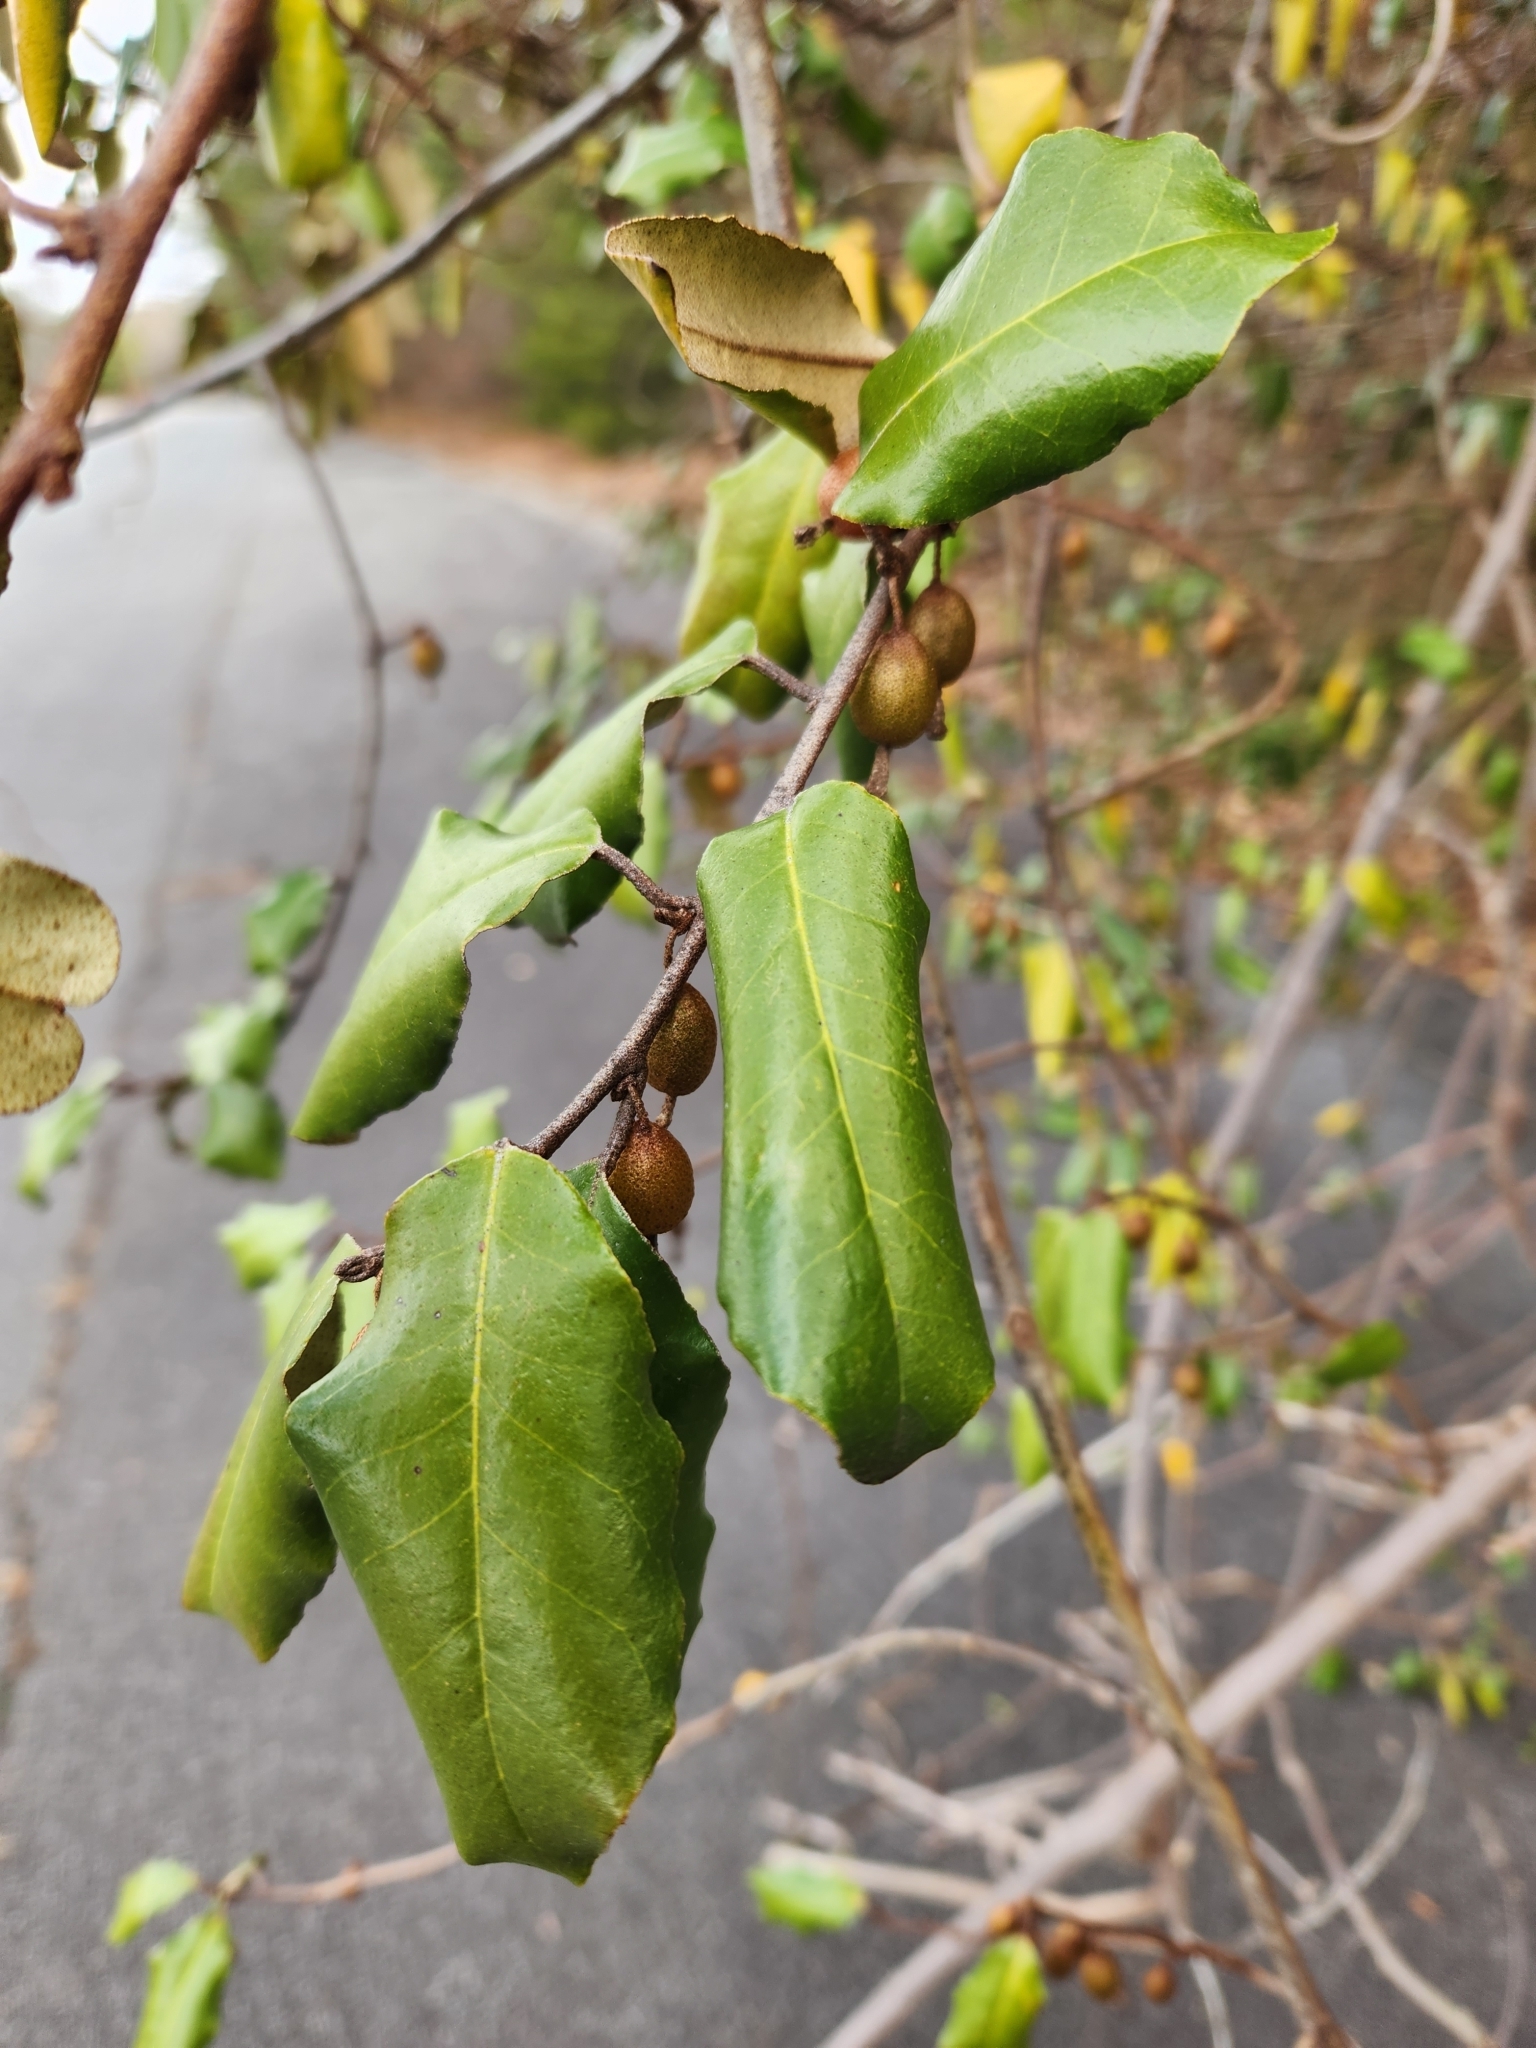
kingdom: Plantae
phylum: Tracheophyta
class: Magnoliopsida
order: Rosales
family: Elaeagnaceae
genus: Elaeagnus
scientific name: Elaeagnus pungens
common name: Spiny oleaster
